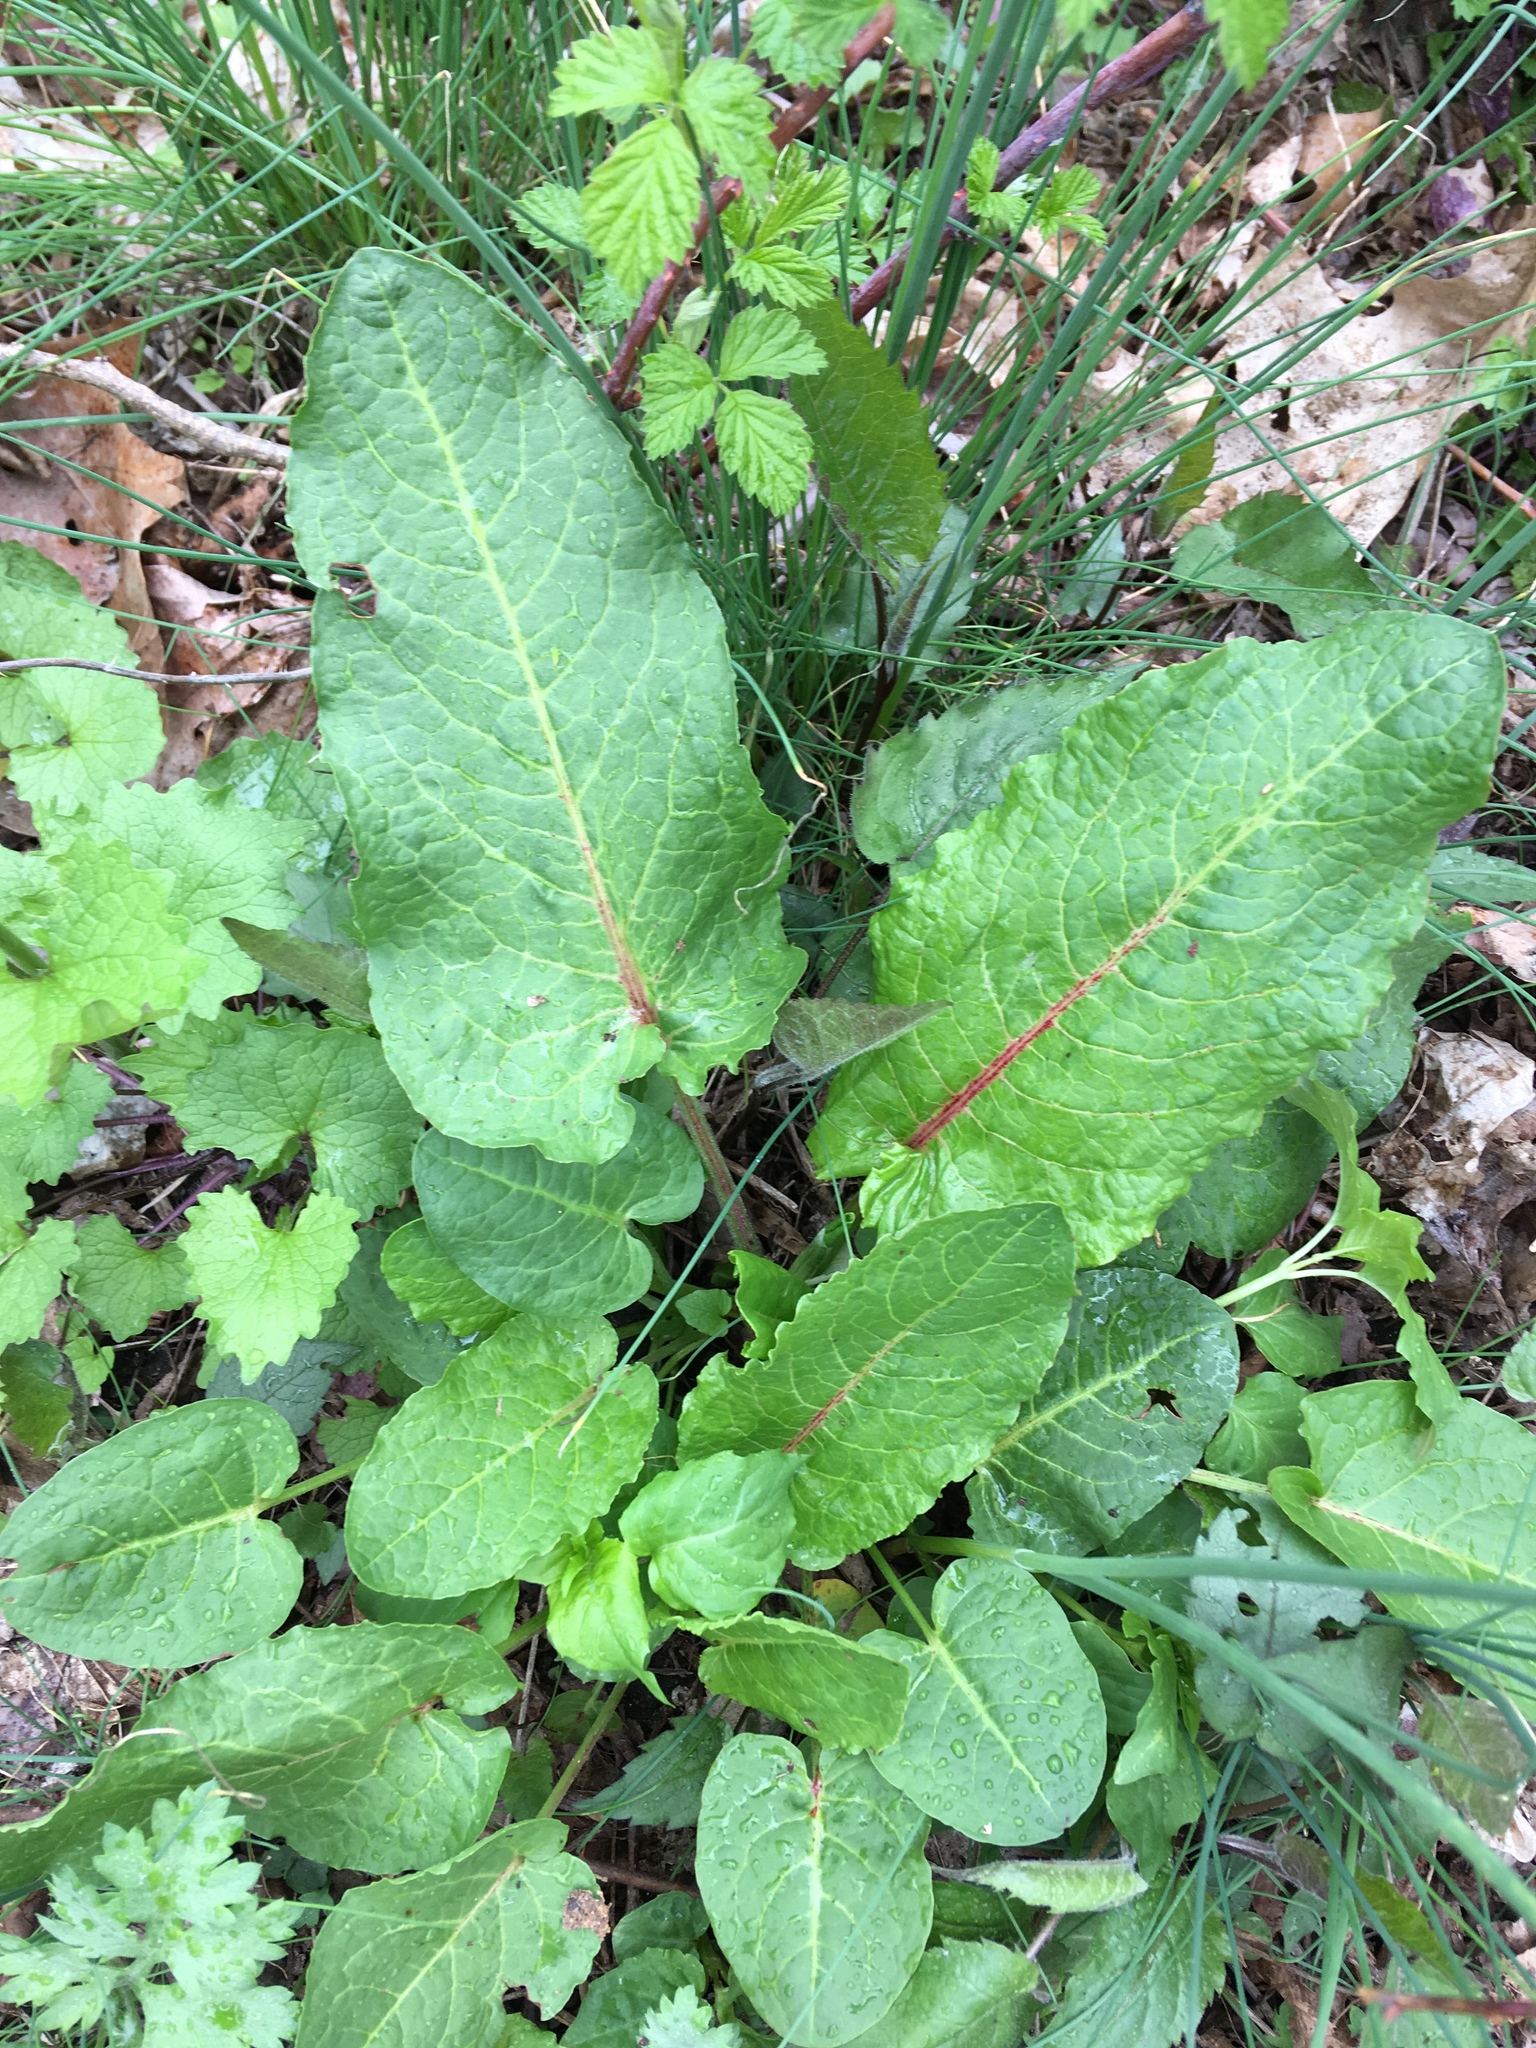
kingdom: Plantae
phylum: Tracheophyta
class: Magnoliopsida
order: Caryophyllales
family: Polygonaceae
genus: Rumex
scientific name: Rumex obtusifolius
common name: Bitter dock
